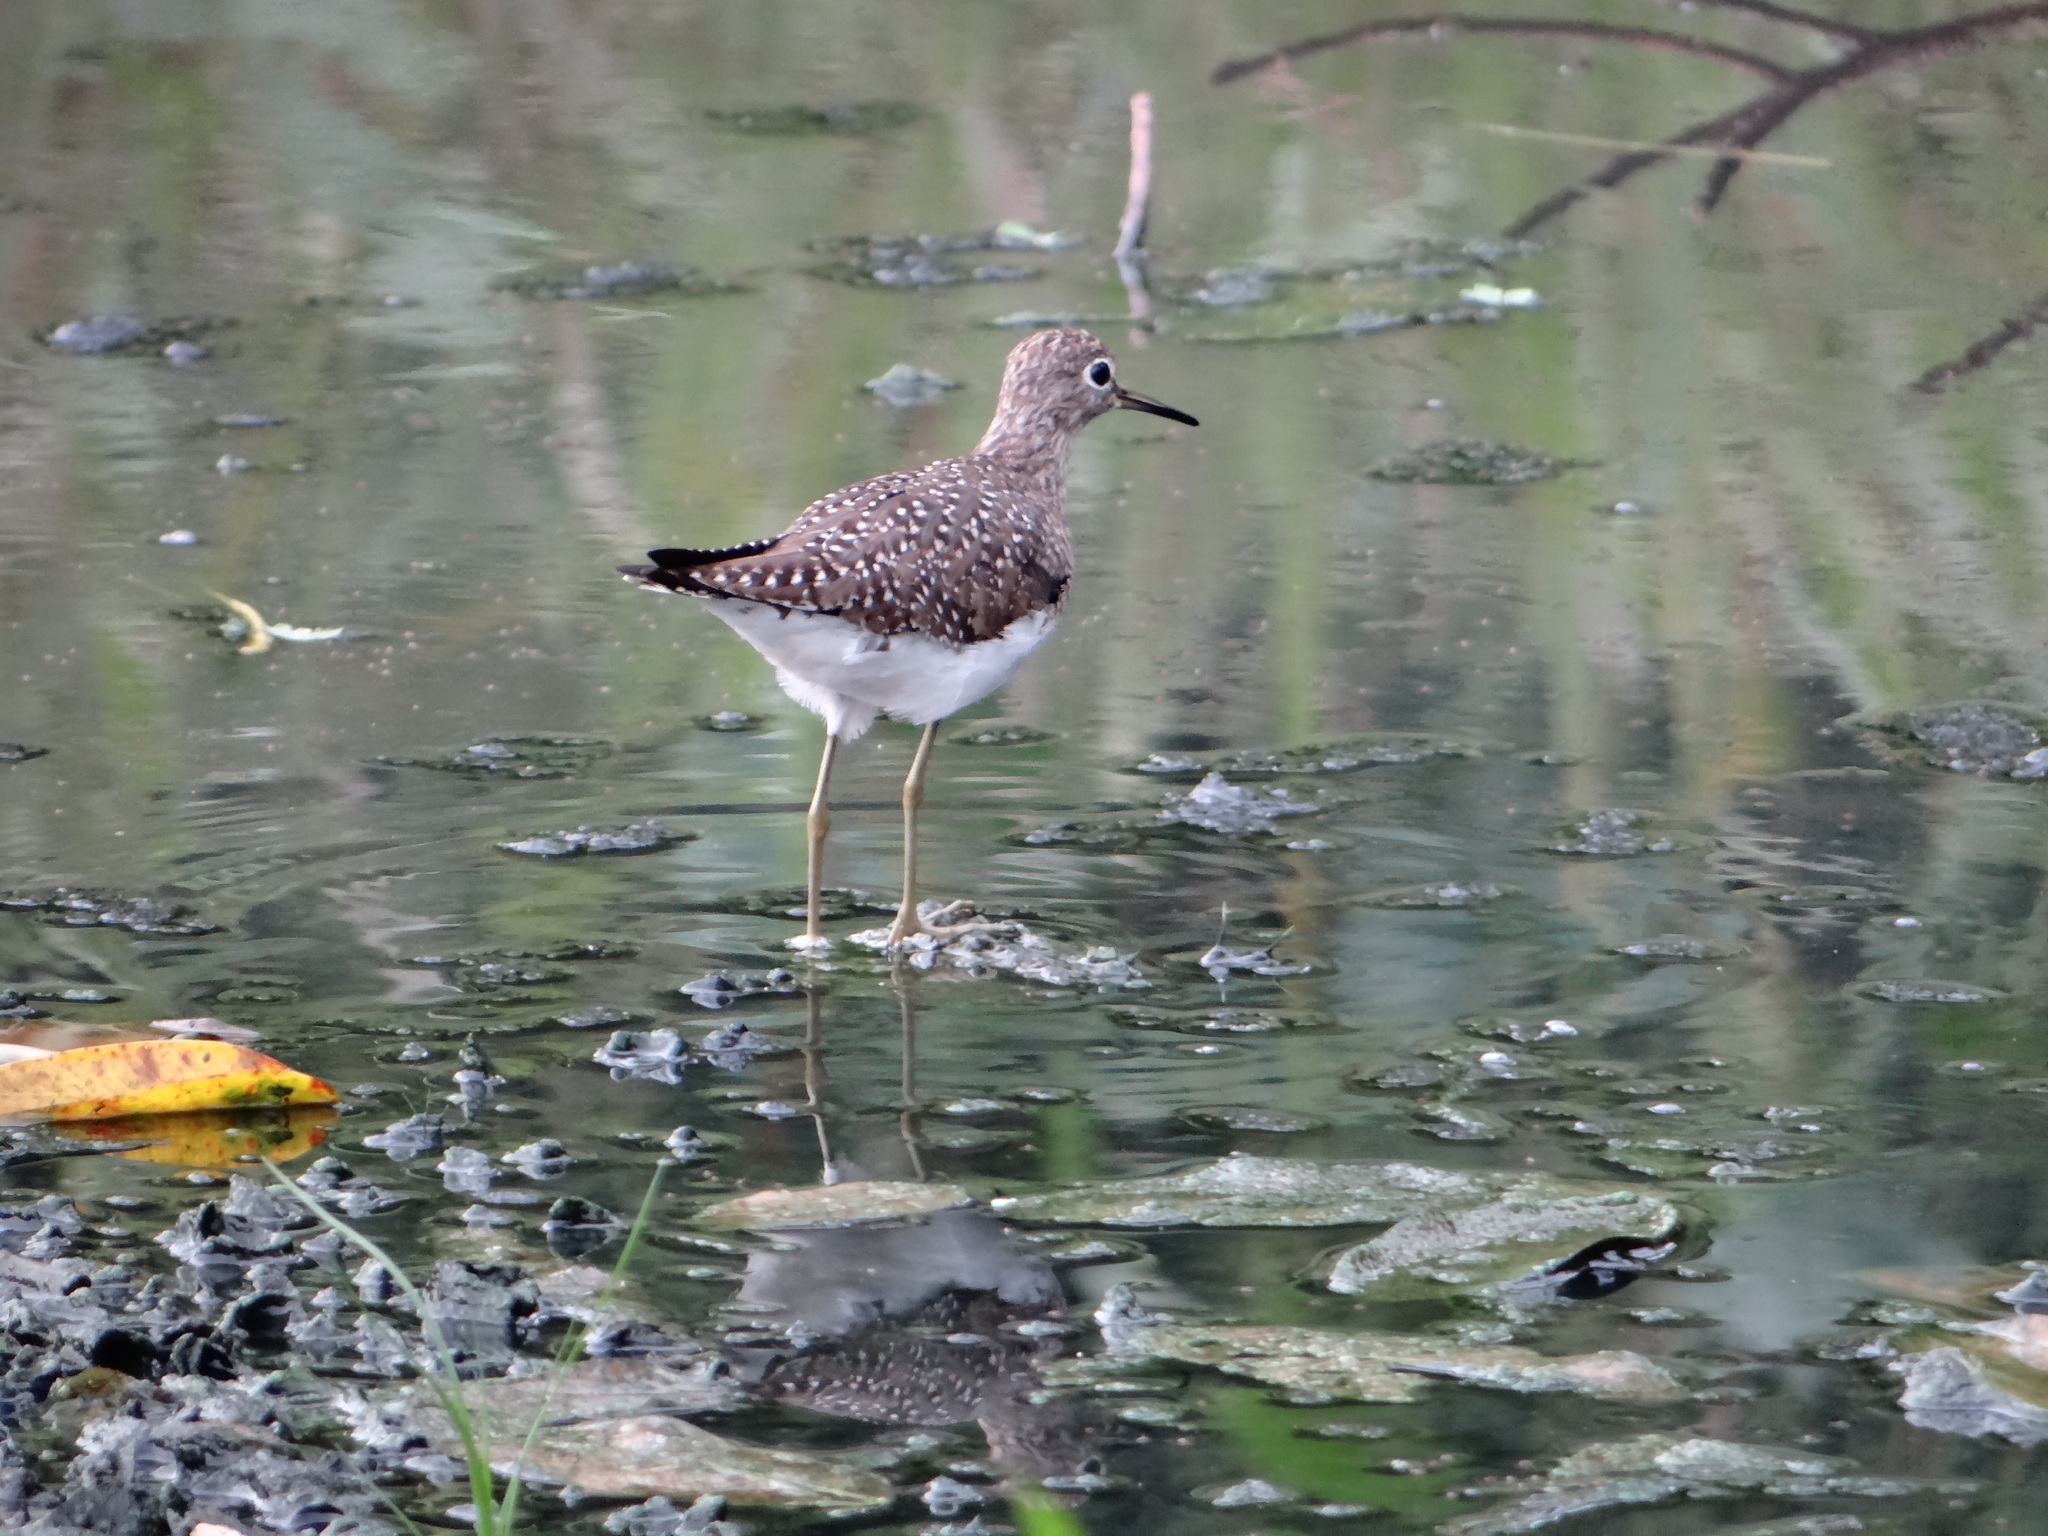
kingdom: Animalia
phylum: Chordata
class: Aves
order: Charadriiformes
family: Scolopacidae
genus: Tringa
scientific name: Tringa solitaria
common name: Solitary sandpiper
